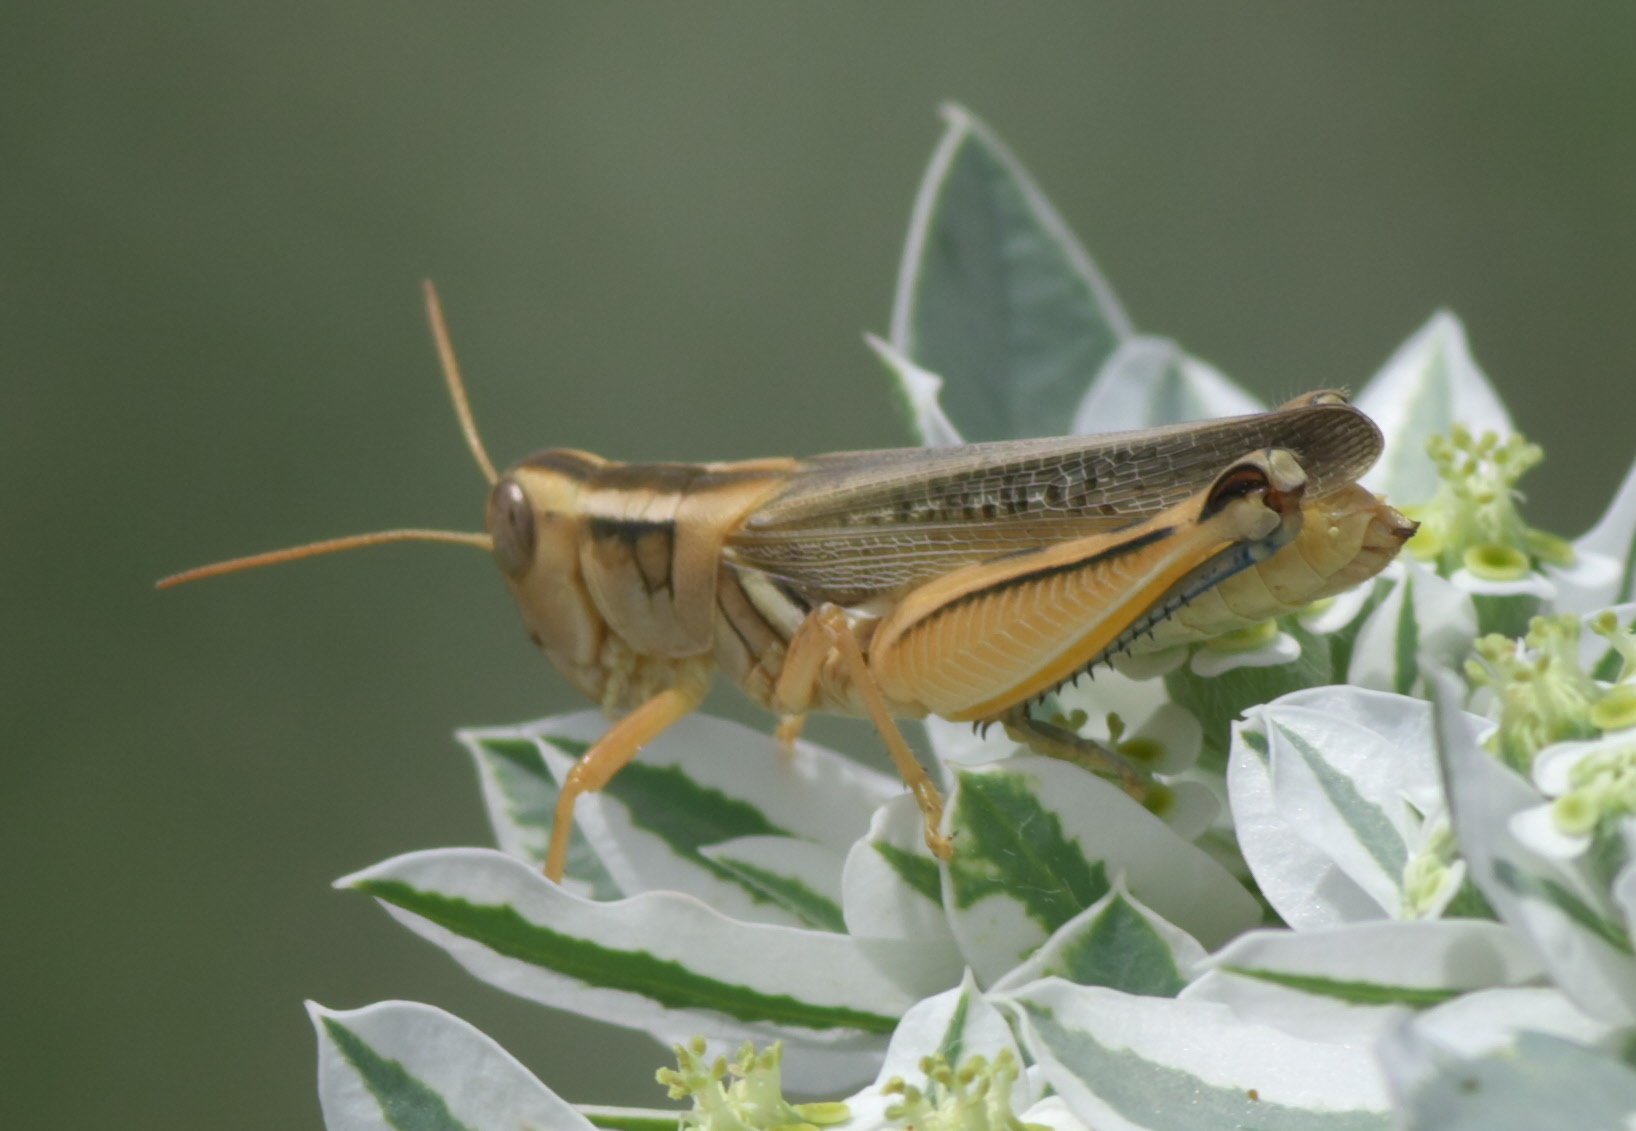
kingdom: Animalia
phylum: Arthropoda
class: Insecta
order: Orthoptera
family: Acrididae
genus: Melanoplus
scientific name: Melanoplus packardii
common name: Packard's grasshopper
